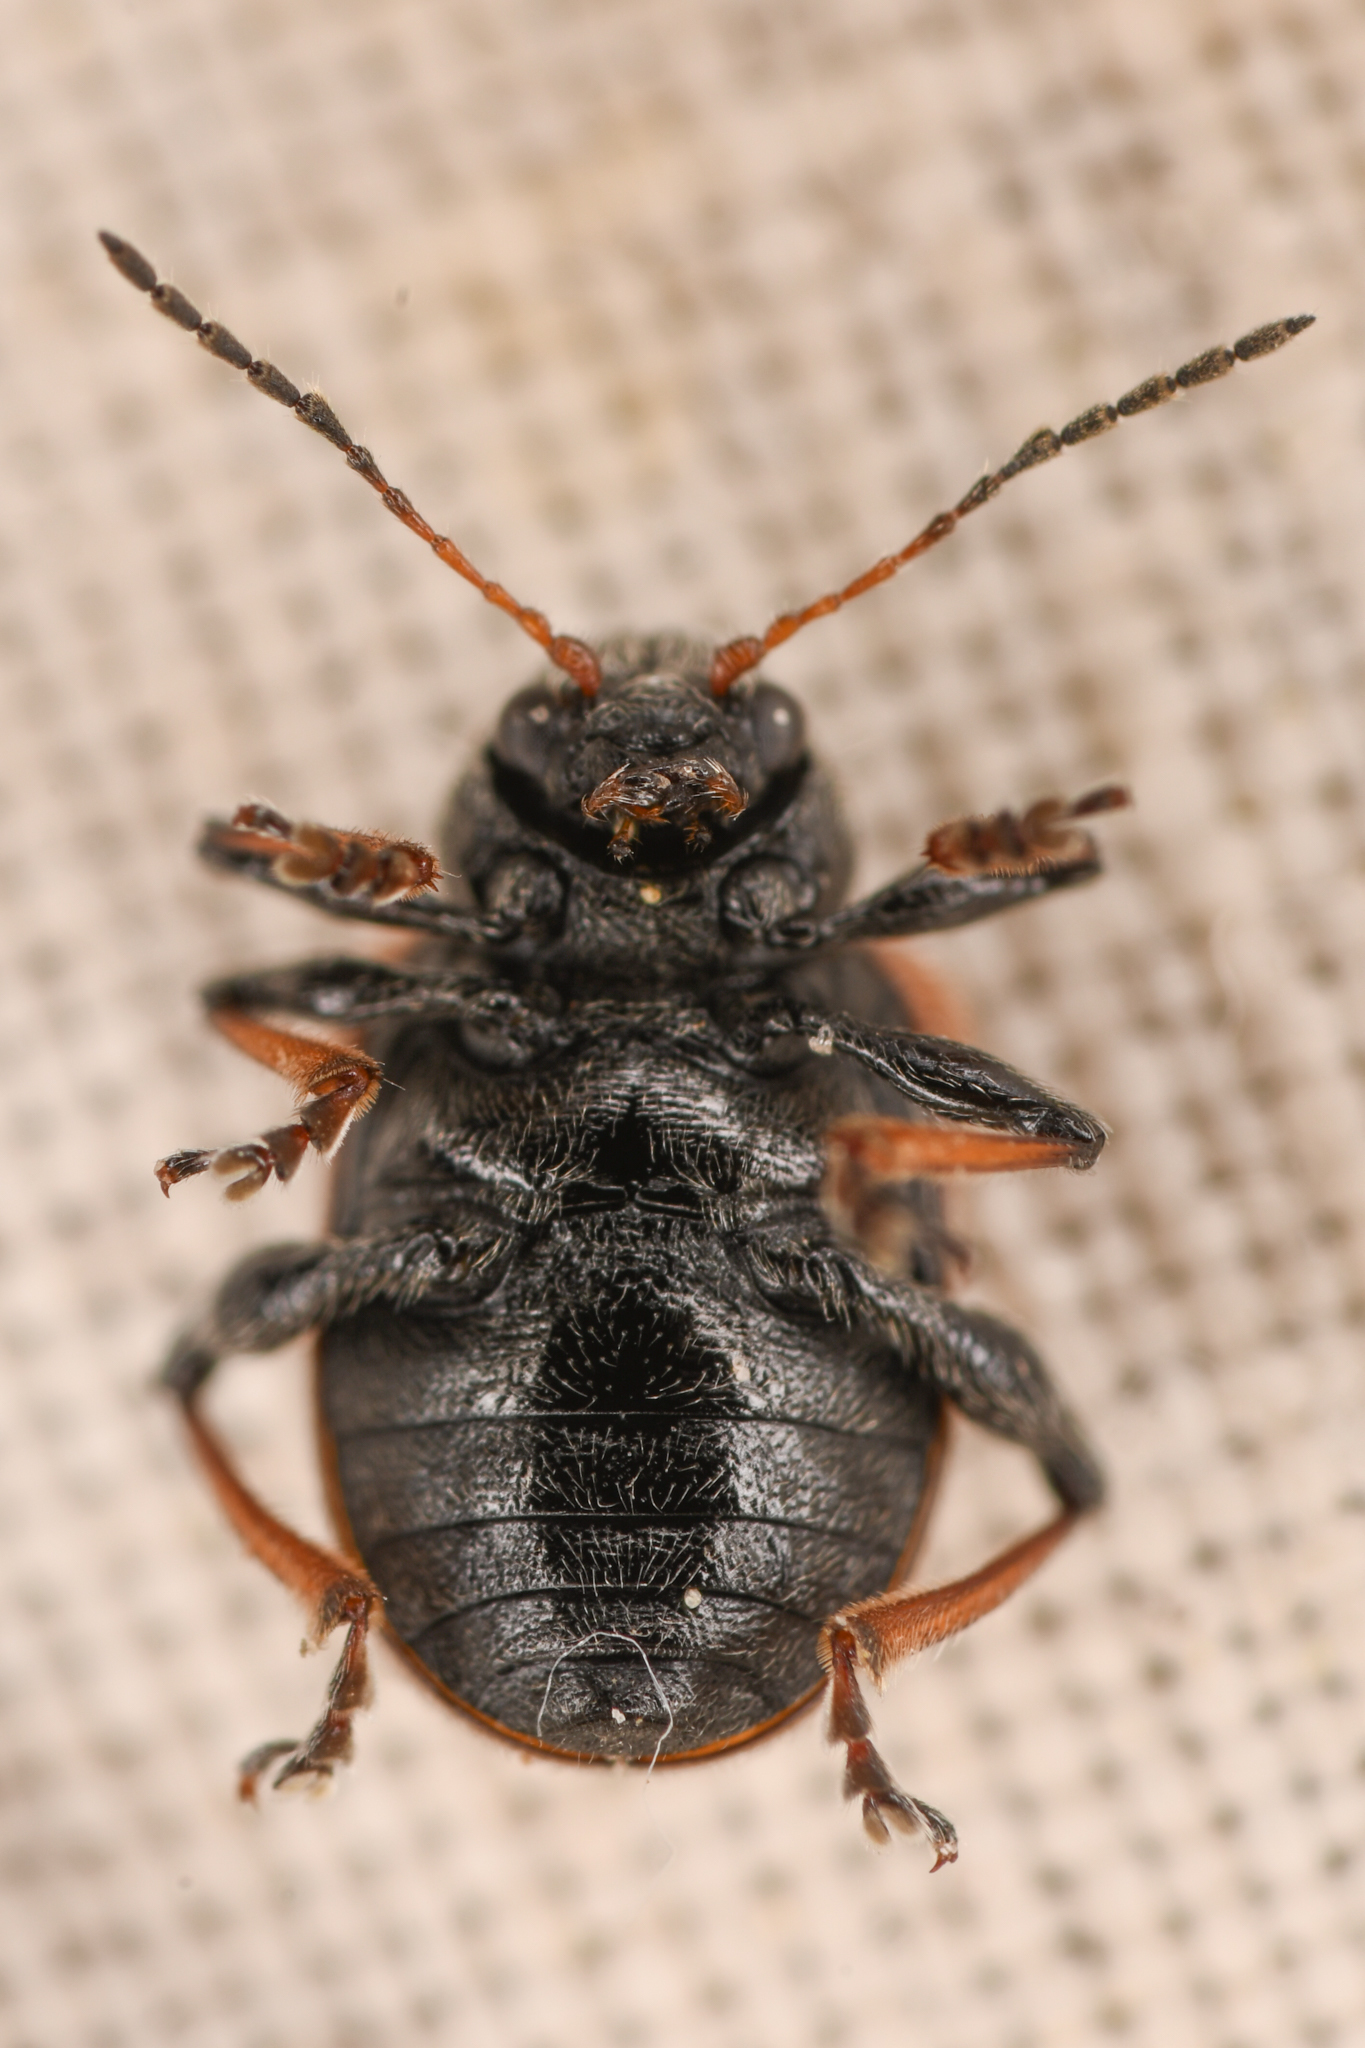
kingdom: Animalia
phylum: Arthropoda
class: Insecta
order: Coleoptera
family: Chrysomelidae
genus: Bromius
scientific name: Bromius obscurus
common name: Western grape rootworm
